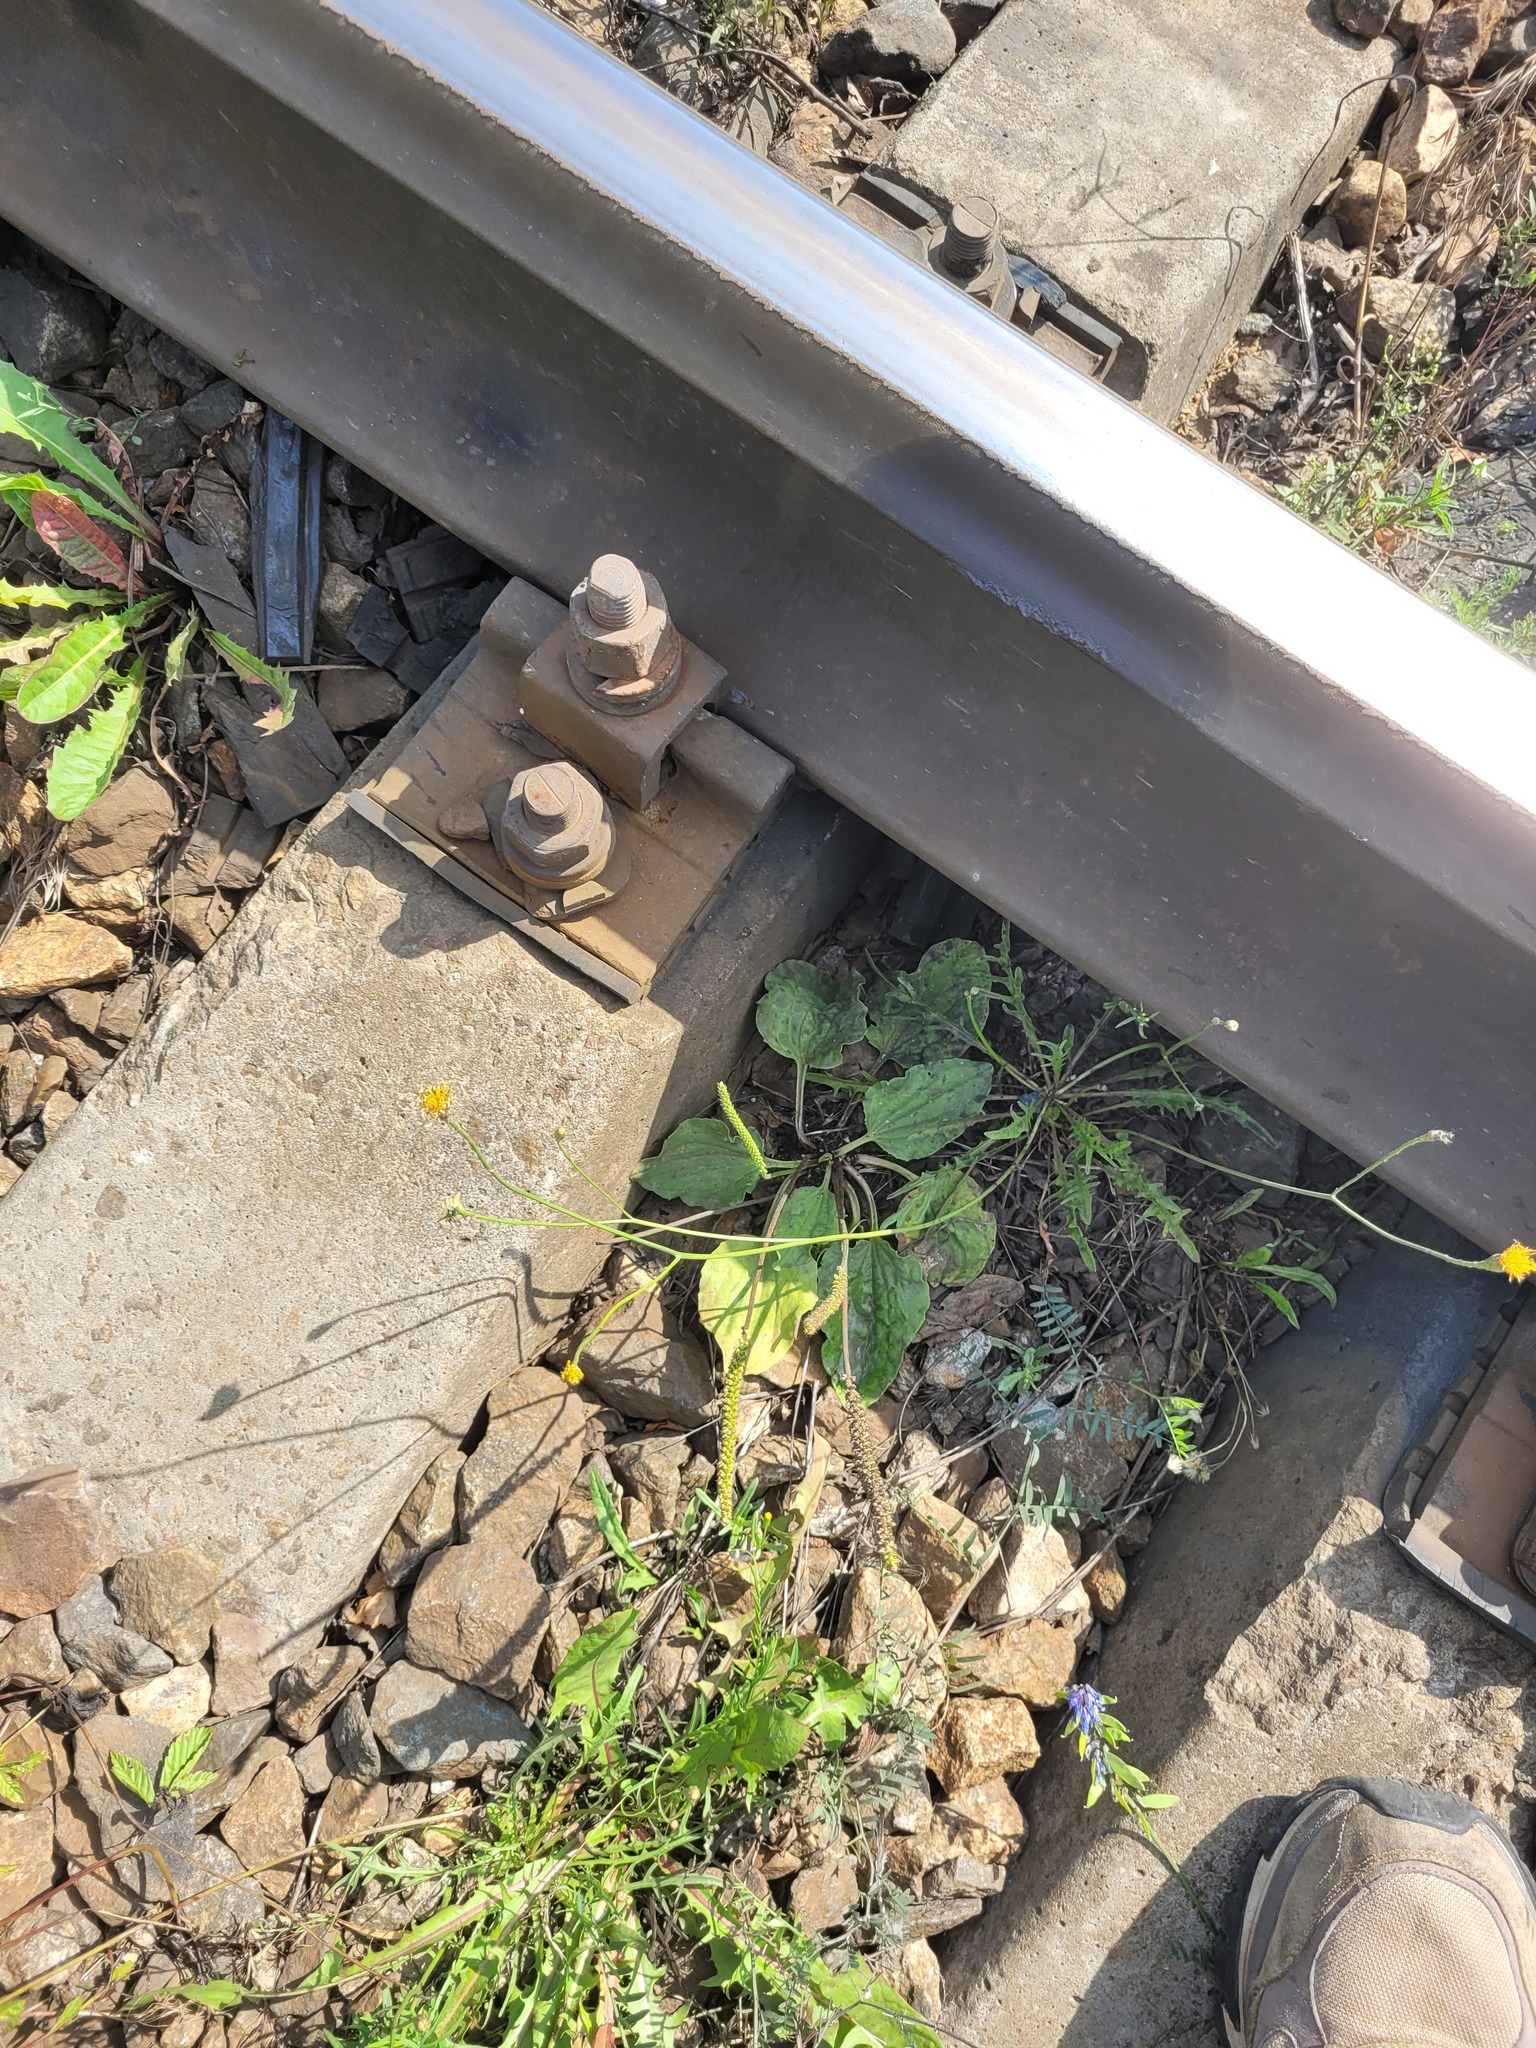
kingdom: Plantae
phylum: Tracheophyta
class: Magnoliopsida
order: Lamiales
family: Plantaginaceae
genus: Plantago
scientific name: Plantago major
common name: Common plantain
